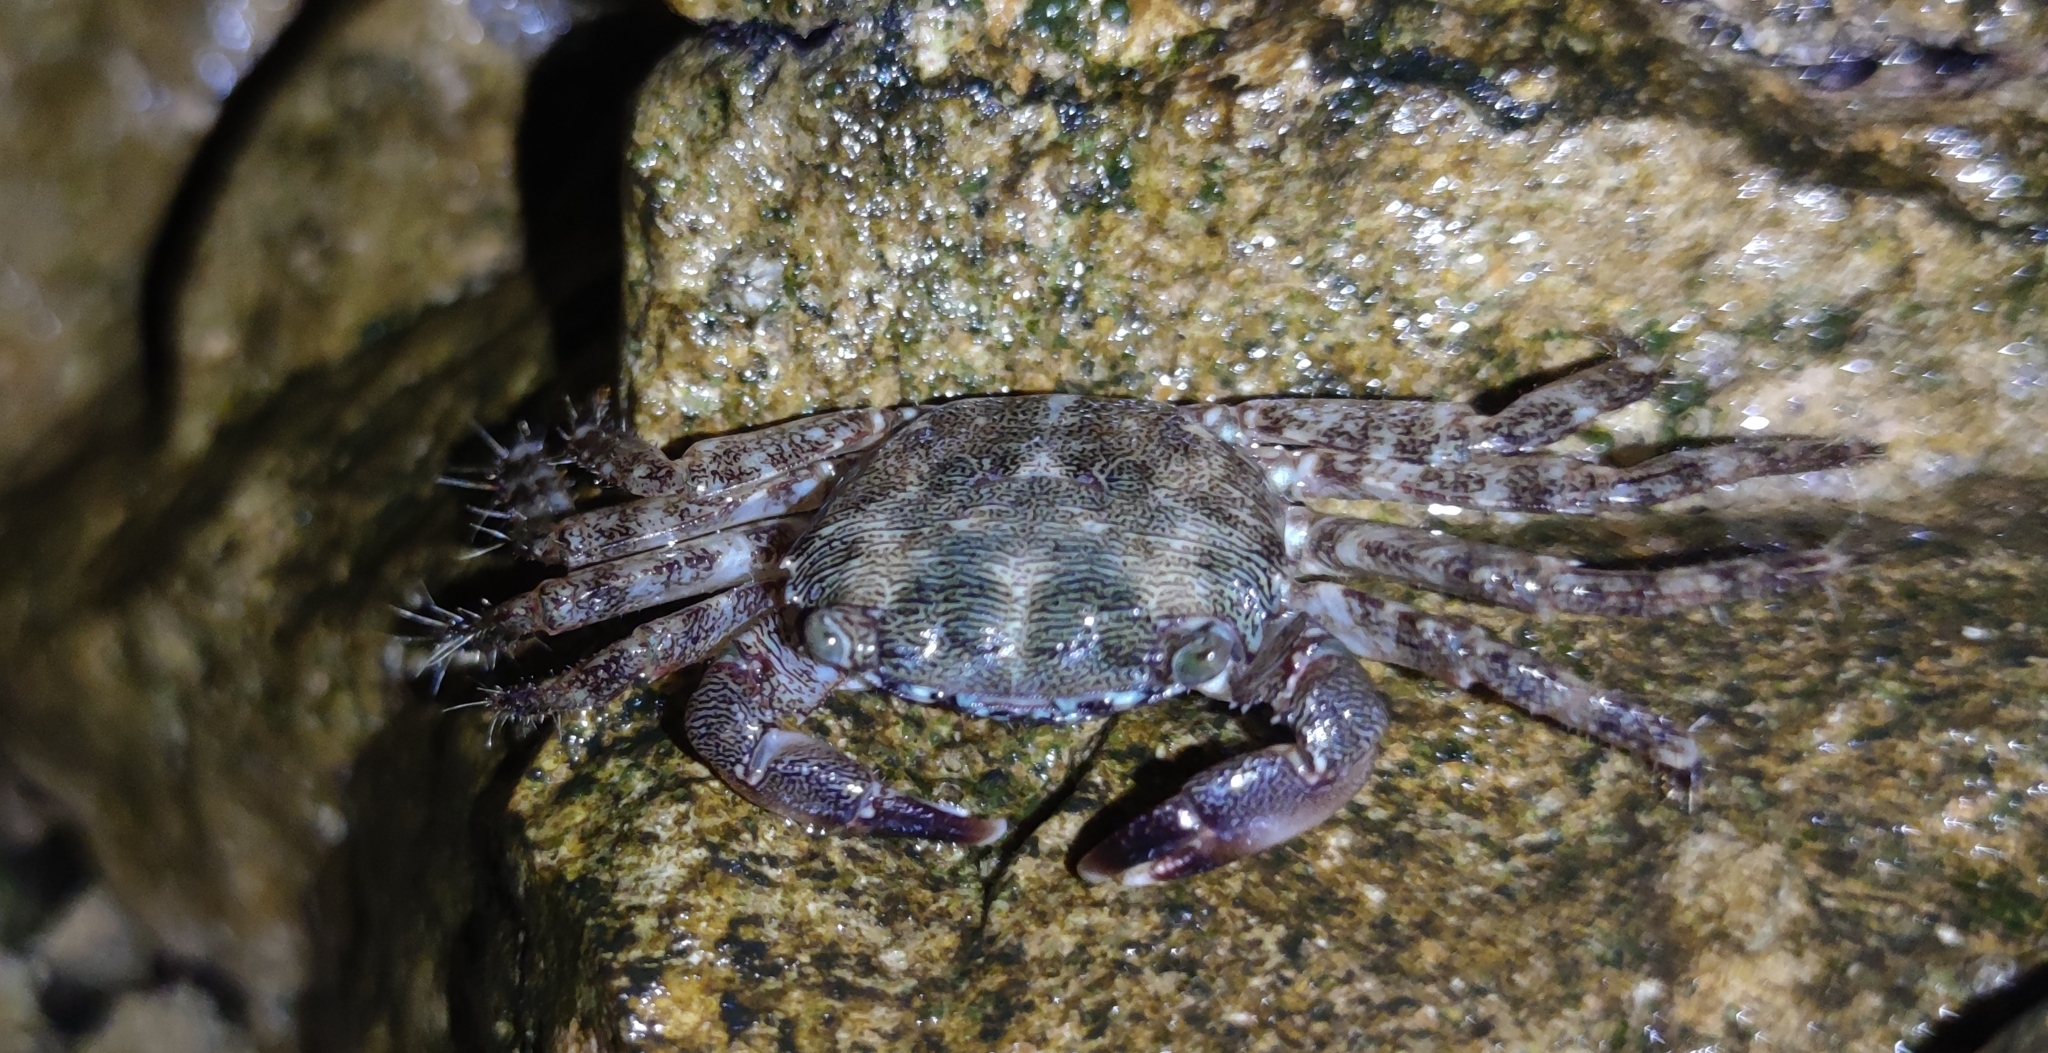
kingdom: Animalia
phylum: Arthropoda
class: Malacostraca
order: Decapoda
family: Grapsidae
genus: Pachygrapsus
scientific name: Pachygrapsus marmoratus
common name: Marbled rock crab
